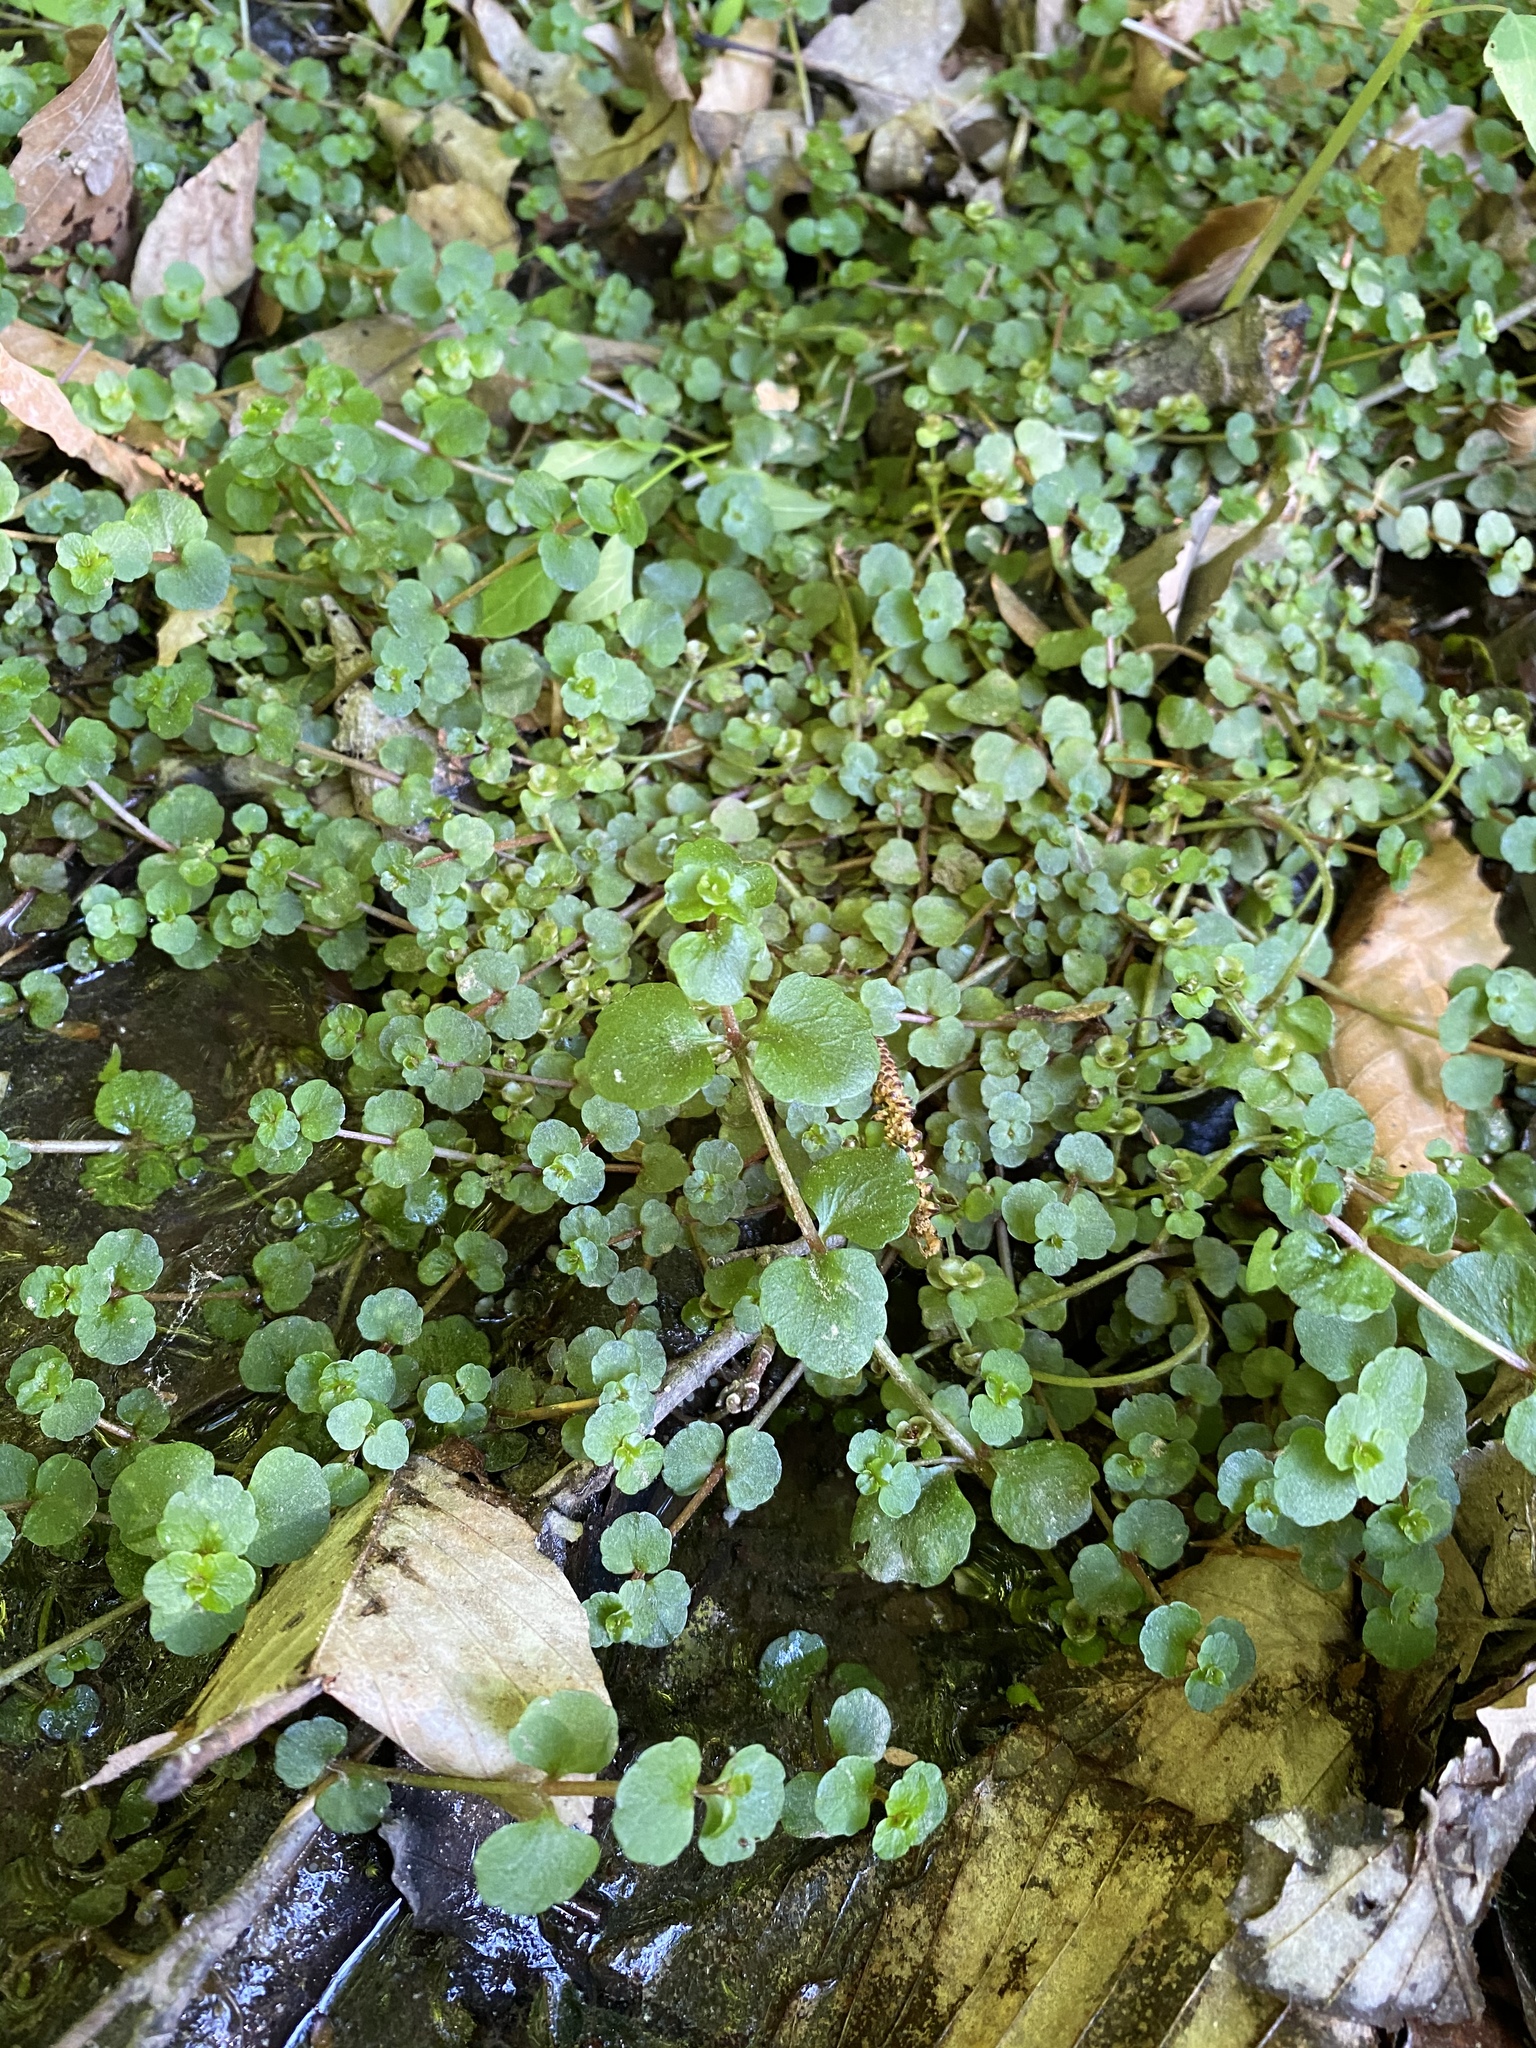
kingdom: Plantae
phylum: Tracheophyta
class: Magnoliopsida
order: Saxifragales
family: Saxifragaceae
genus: Chrysosplenium
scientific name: Chrysosplenium americanum
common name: American golden-saxifrage
